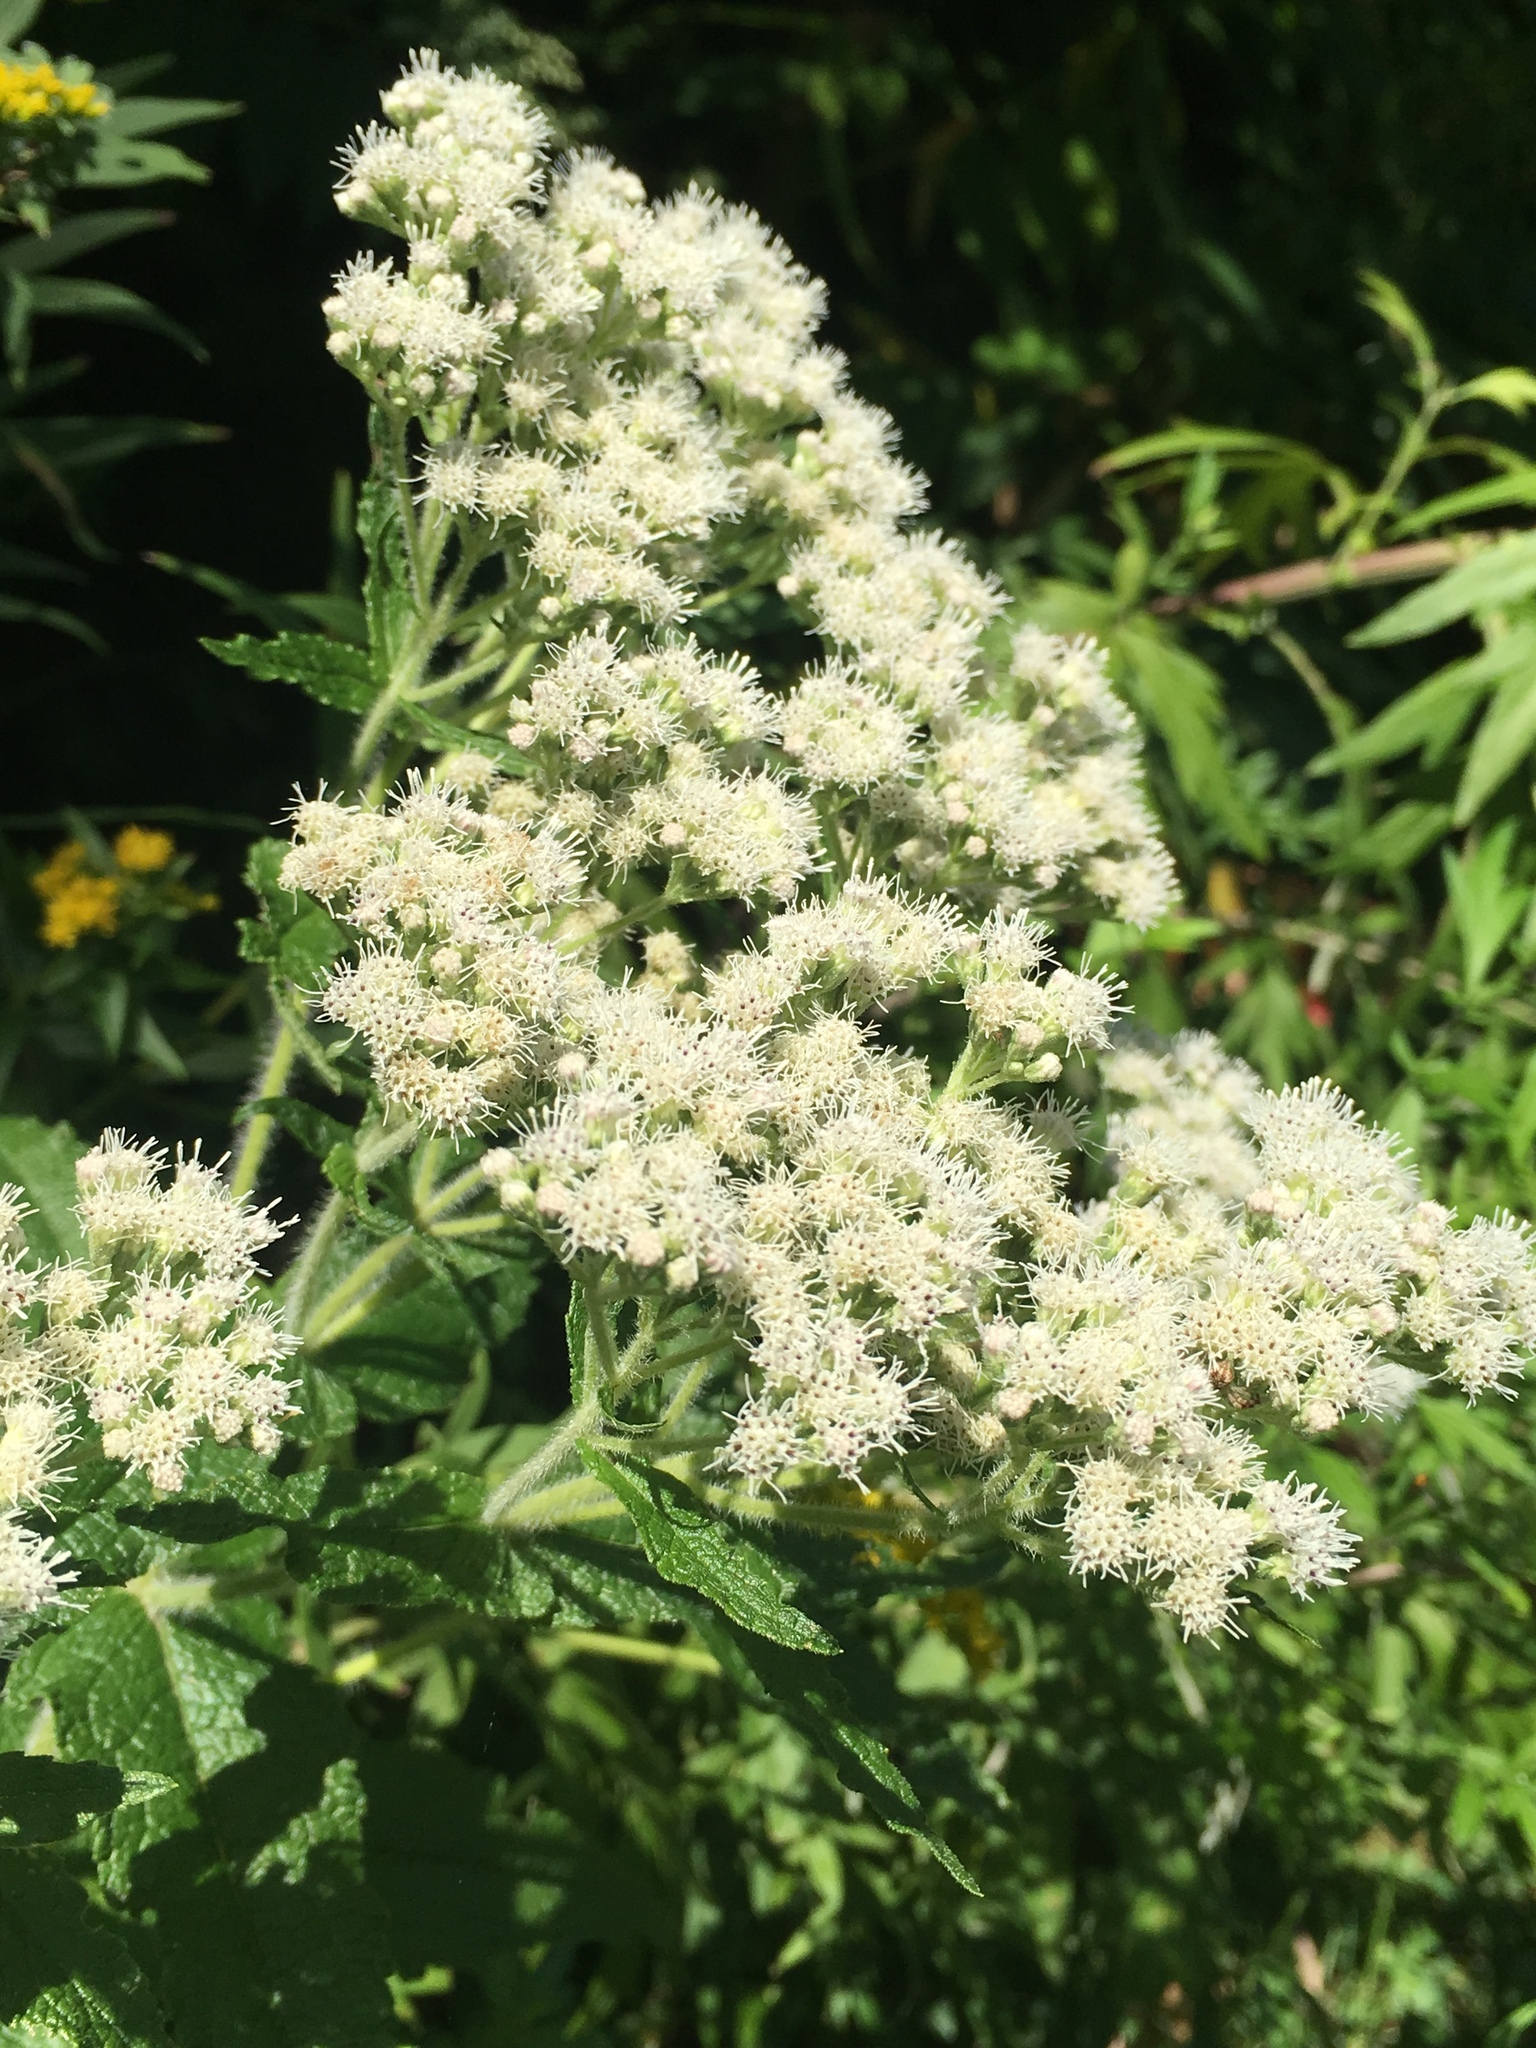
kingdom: Plantae
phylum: Tracheophyta
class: Magnoliopsida
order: Asterales
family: Asteraceae
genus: Eupatorium
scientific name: Eupatorium perfoliatum
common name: Boneset
